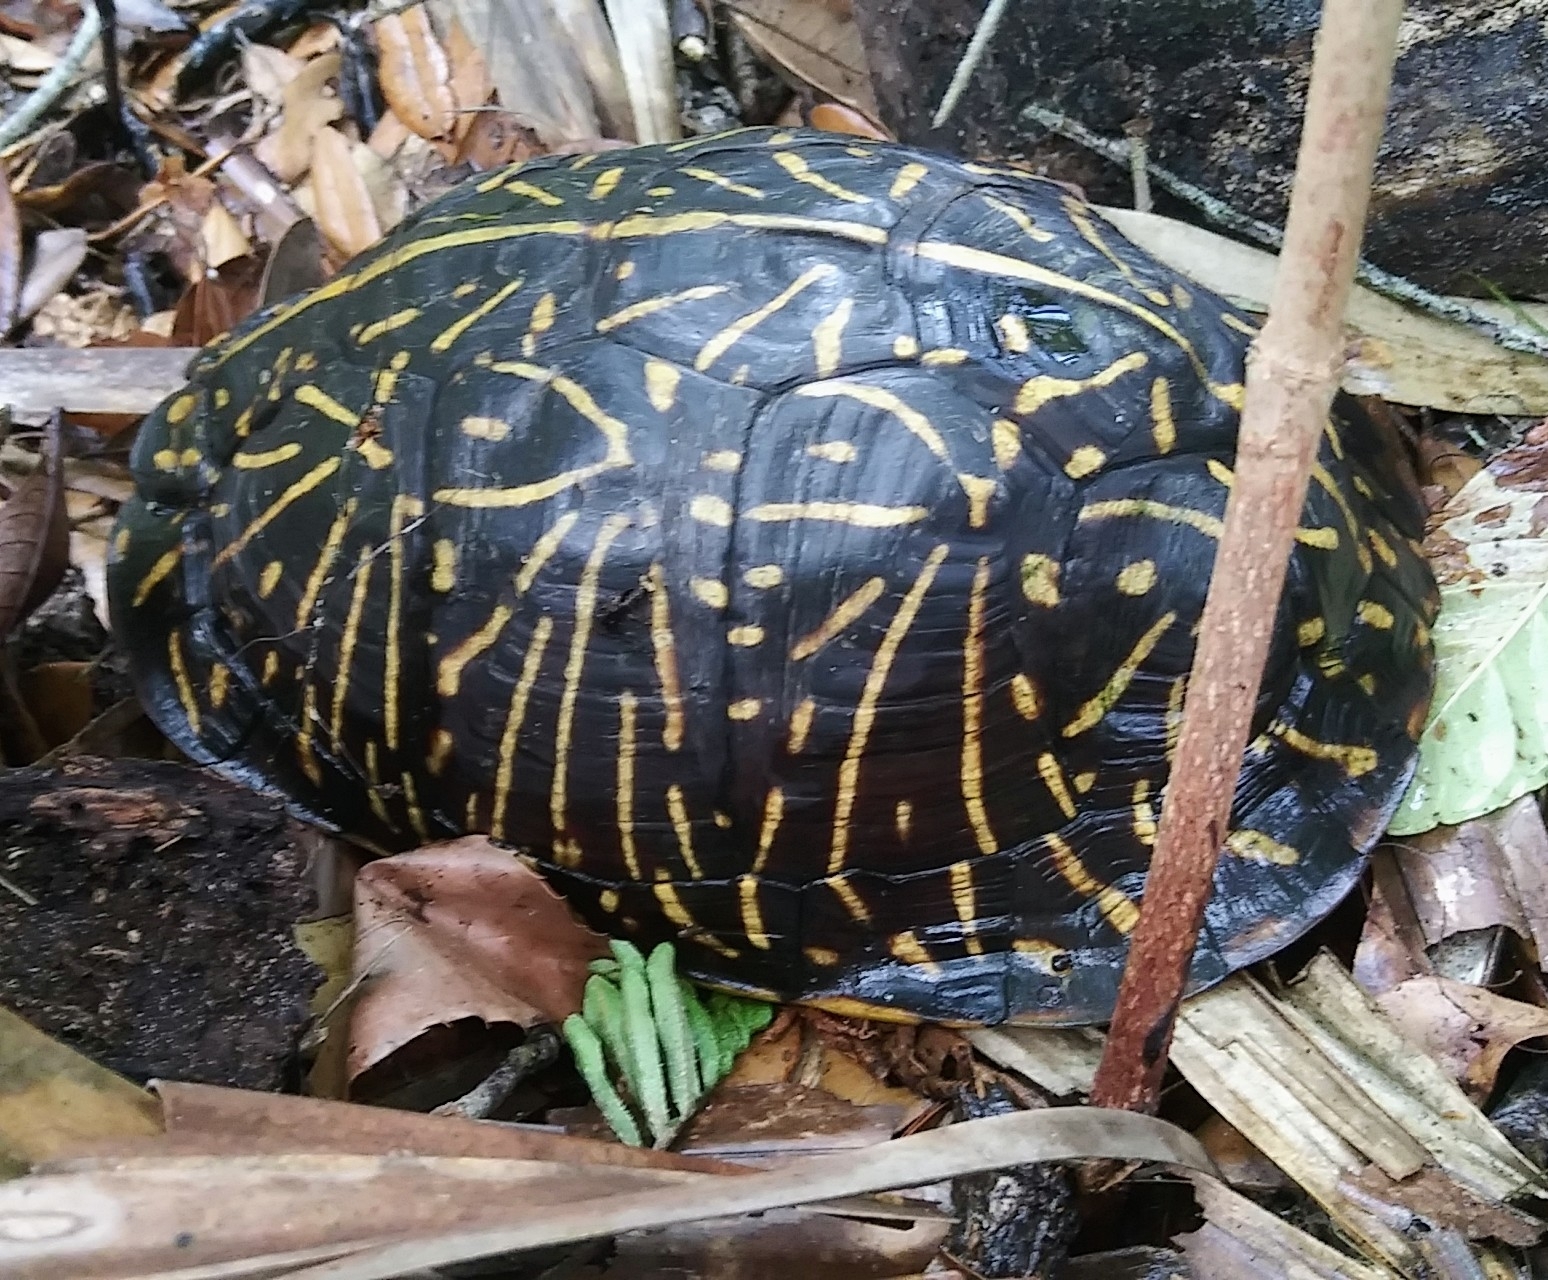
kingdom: Animalia
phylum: Chordata
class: Testudines
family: Emydidae
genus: Terrapene
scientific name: Terrapene carolina
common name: Common box turtle
